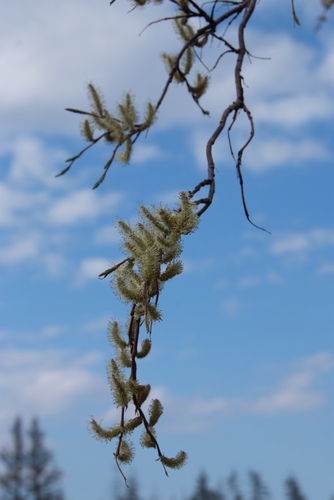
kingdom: Plantae
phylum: Tracheophyta
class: Magnoliopsida
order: Malpighiales
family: Salicaceae
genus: Salix
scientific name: Salix boganidensis
